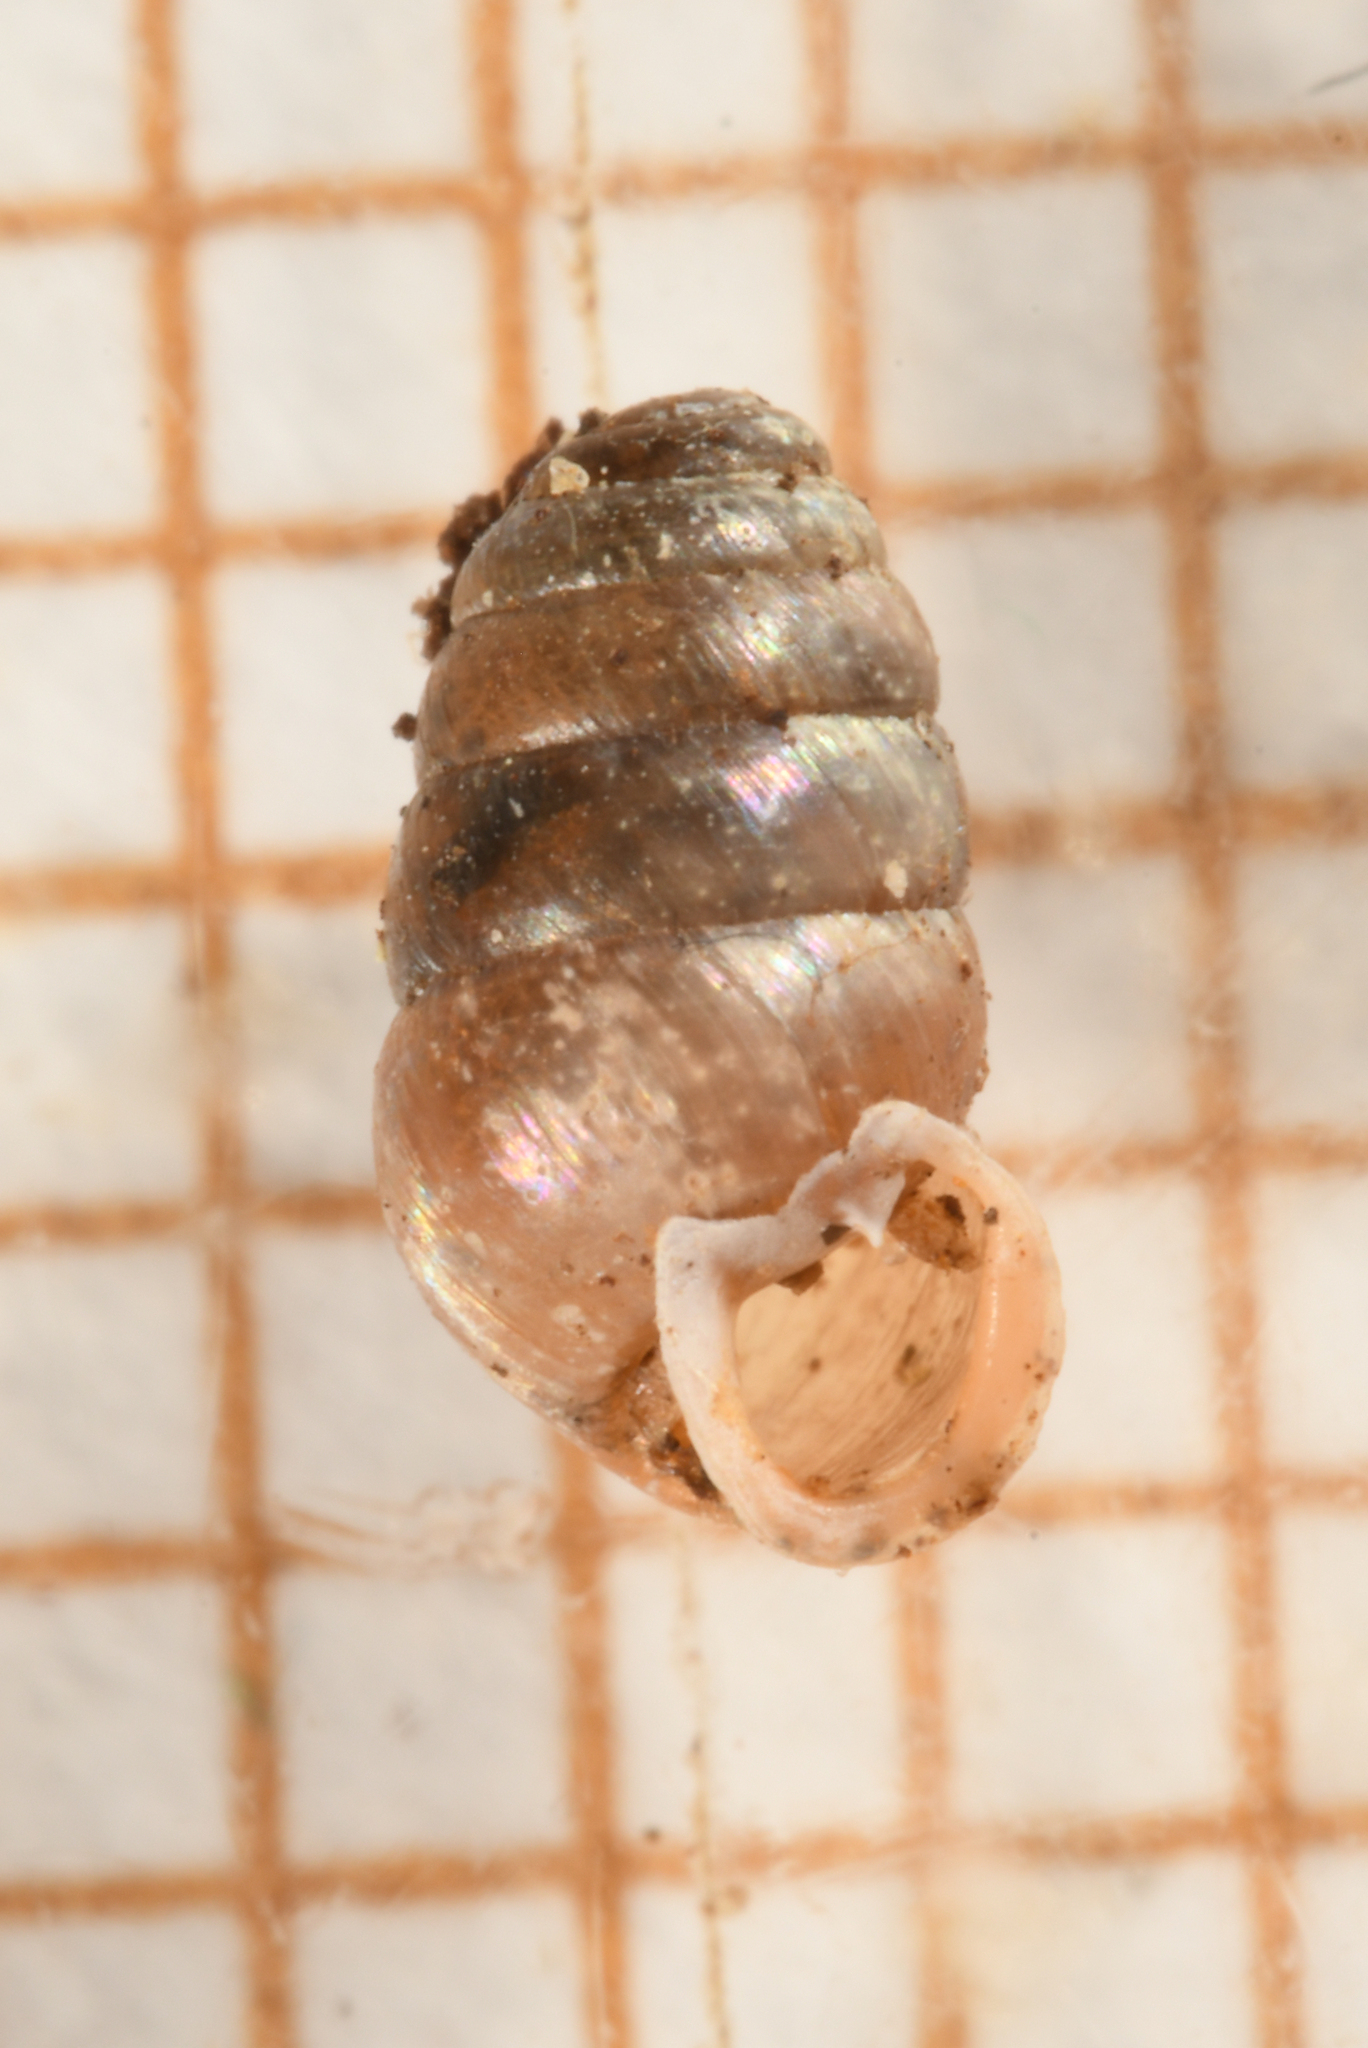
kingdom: Animalia
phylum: Mollusca
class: Gastropoda
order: Stylommatophora
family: Lauriidae
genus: Lauria
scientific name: Lauria cylindracea
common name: Common chrysalis snail
